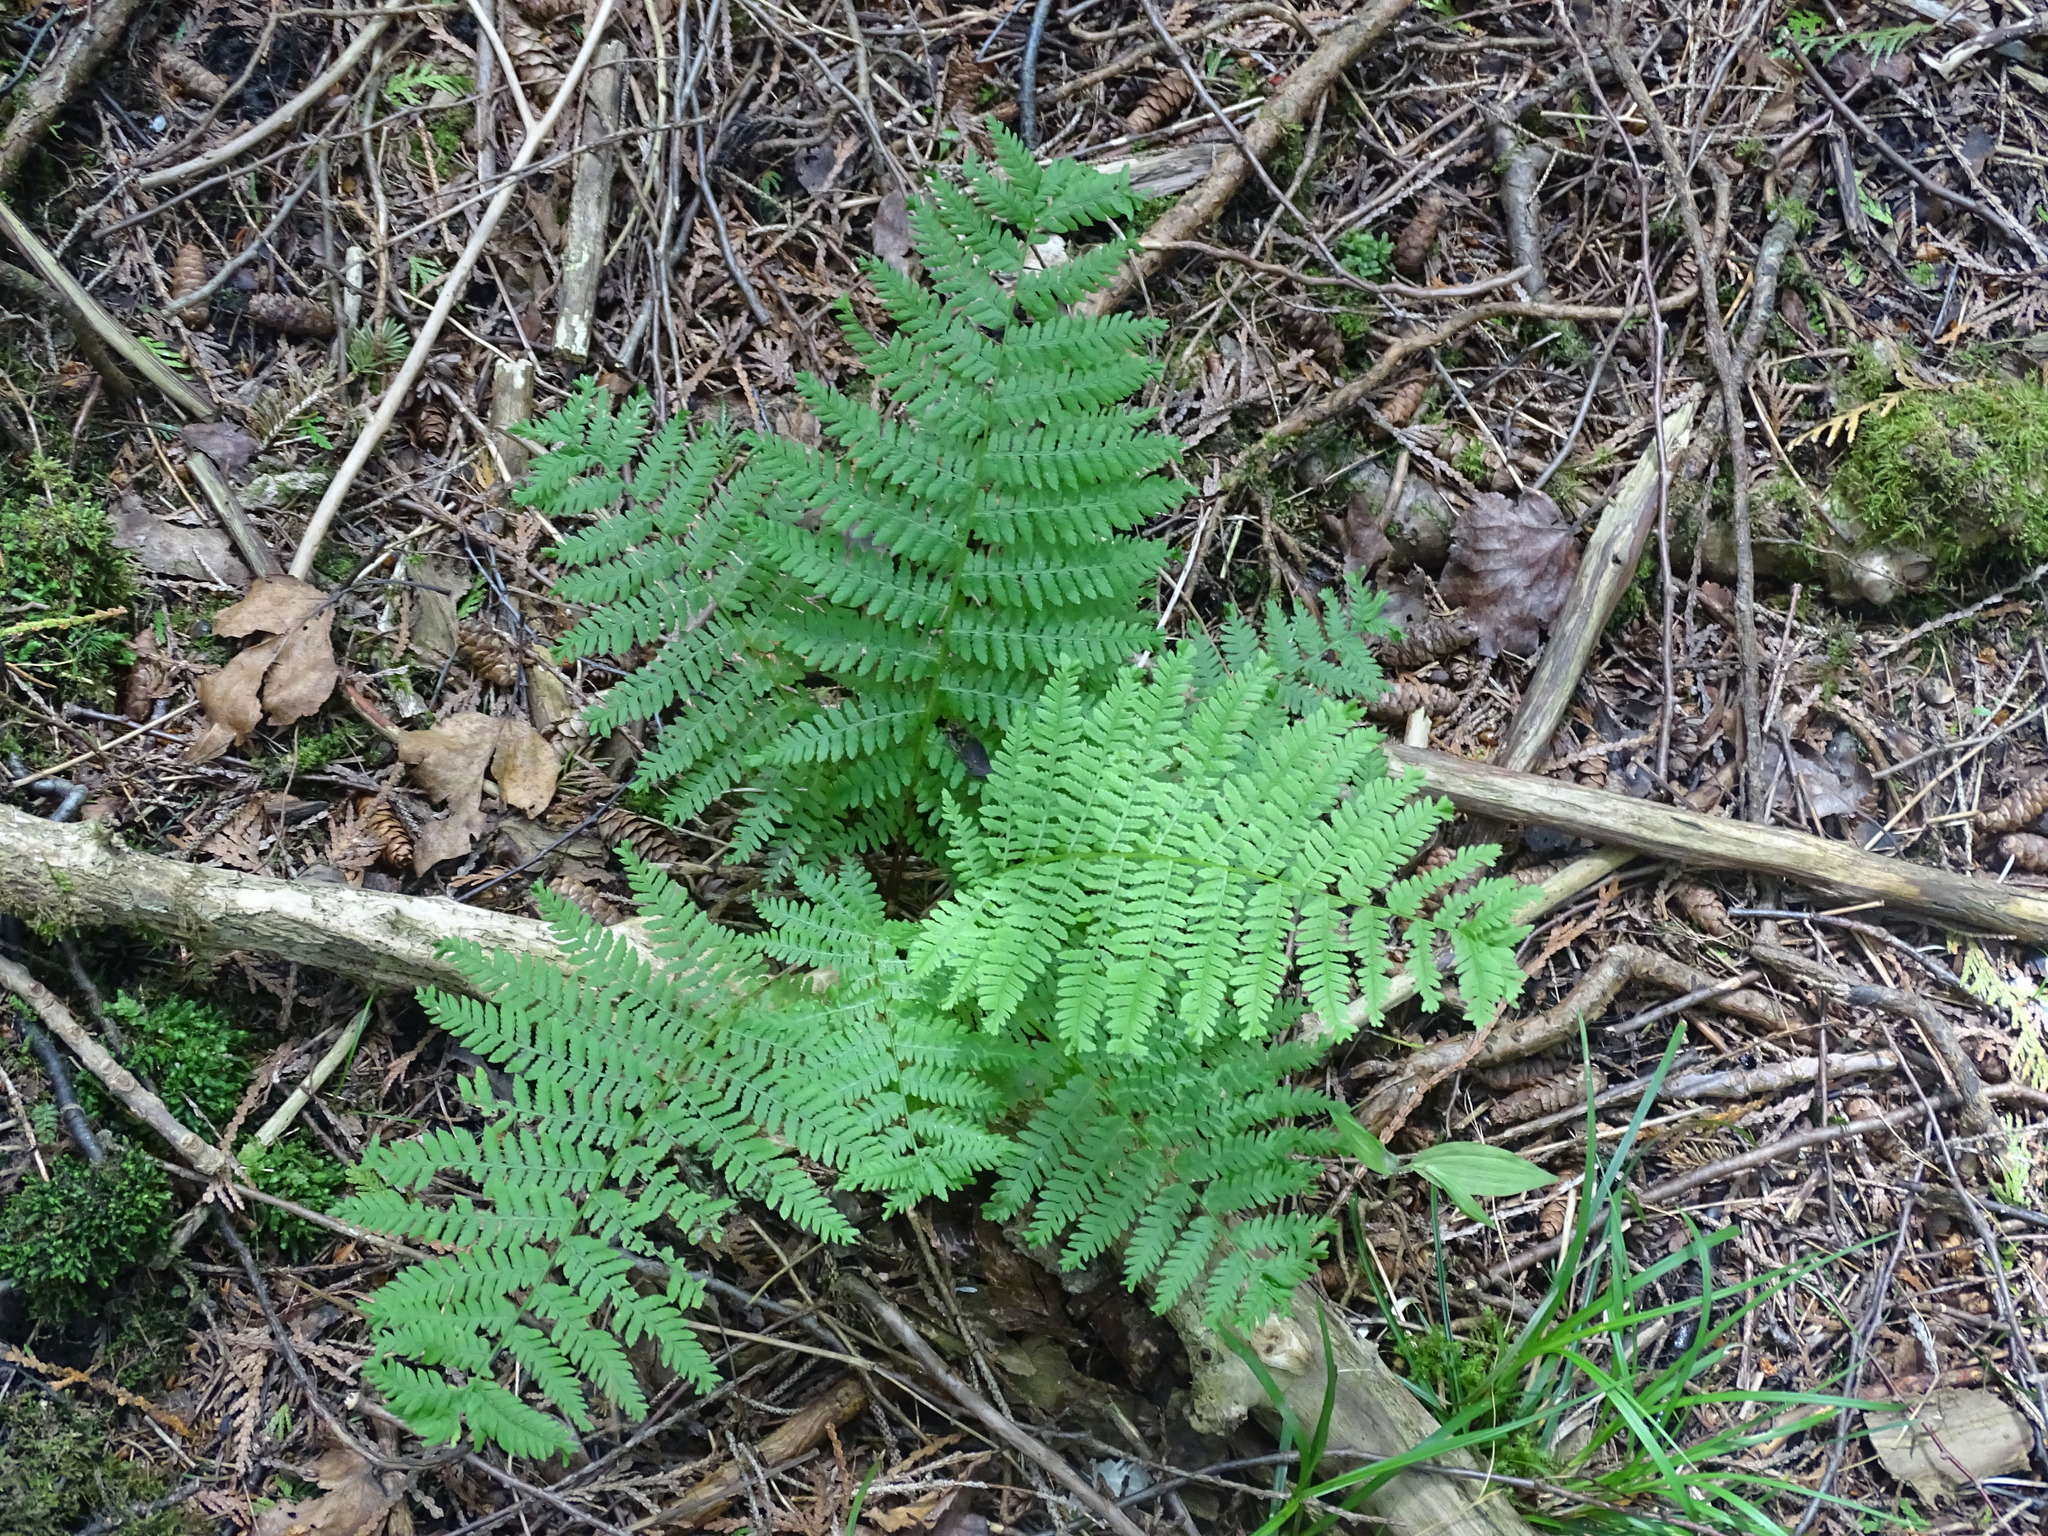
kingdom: Plantae
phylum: Tracheophyta
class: Polypodiopsida
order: Polypodiales
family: Athyriaceae
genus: Athyrium
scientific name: Athyrium angustum
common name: Northern lady fern
